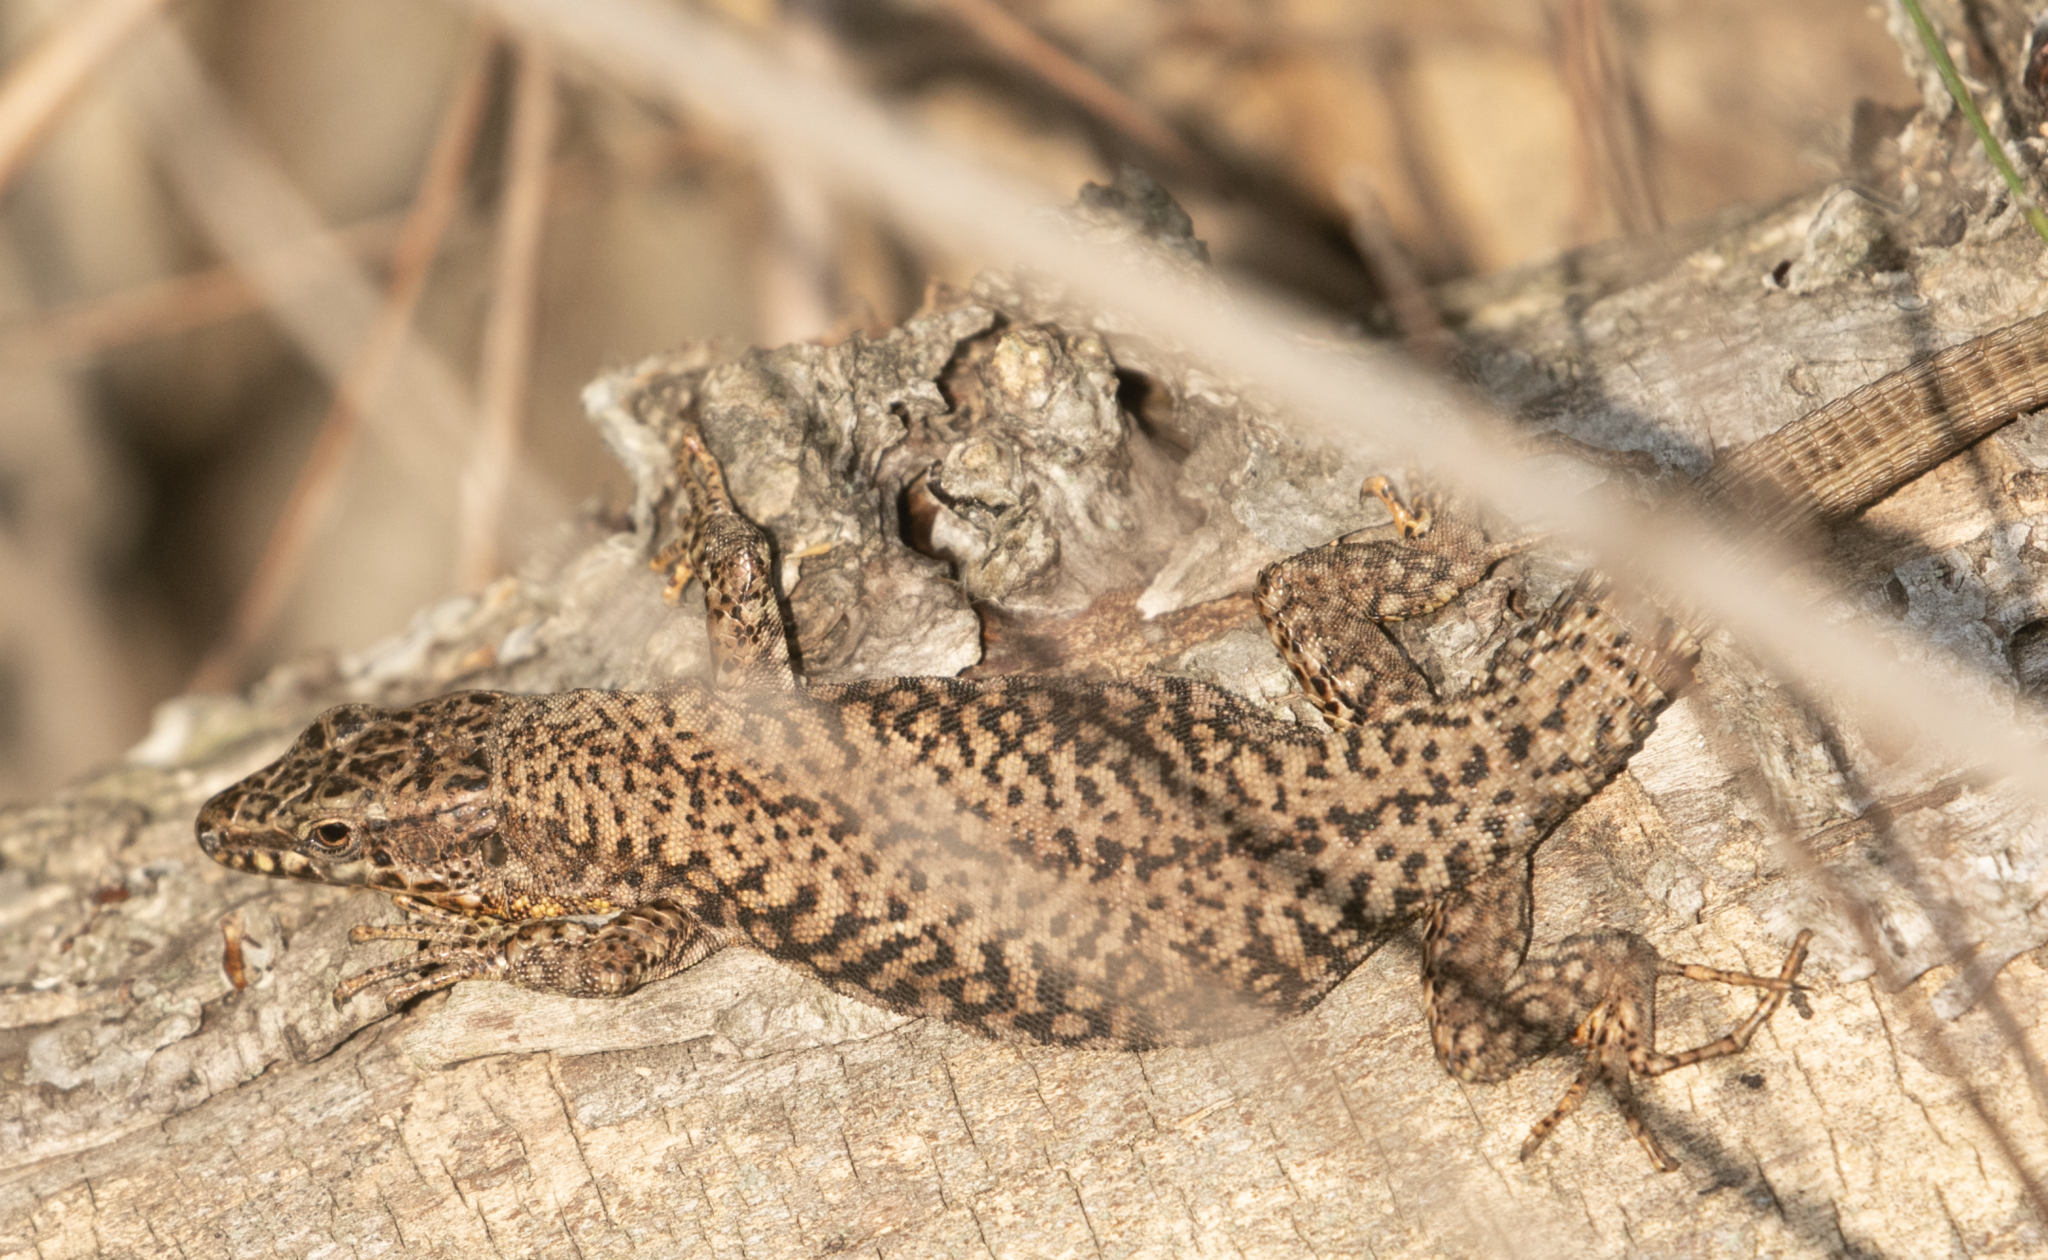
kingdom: Animalia
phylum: Chordata
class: Squamata
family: Lacertidae
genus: Podarcis
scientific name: Podarcis muralis
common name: Common wall lizard
